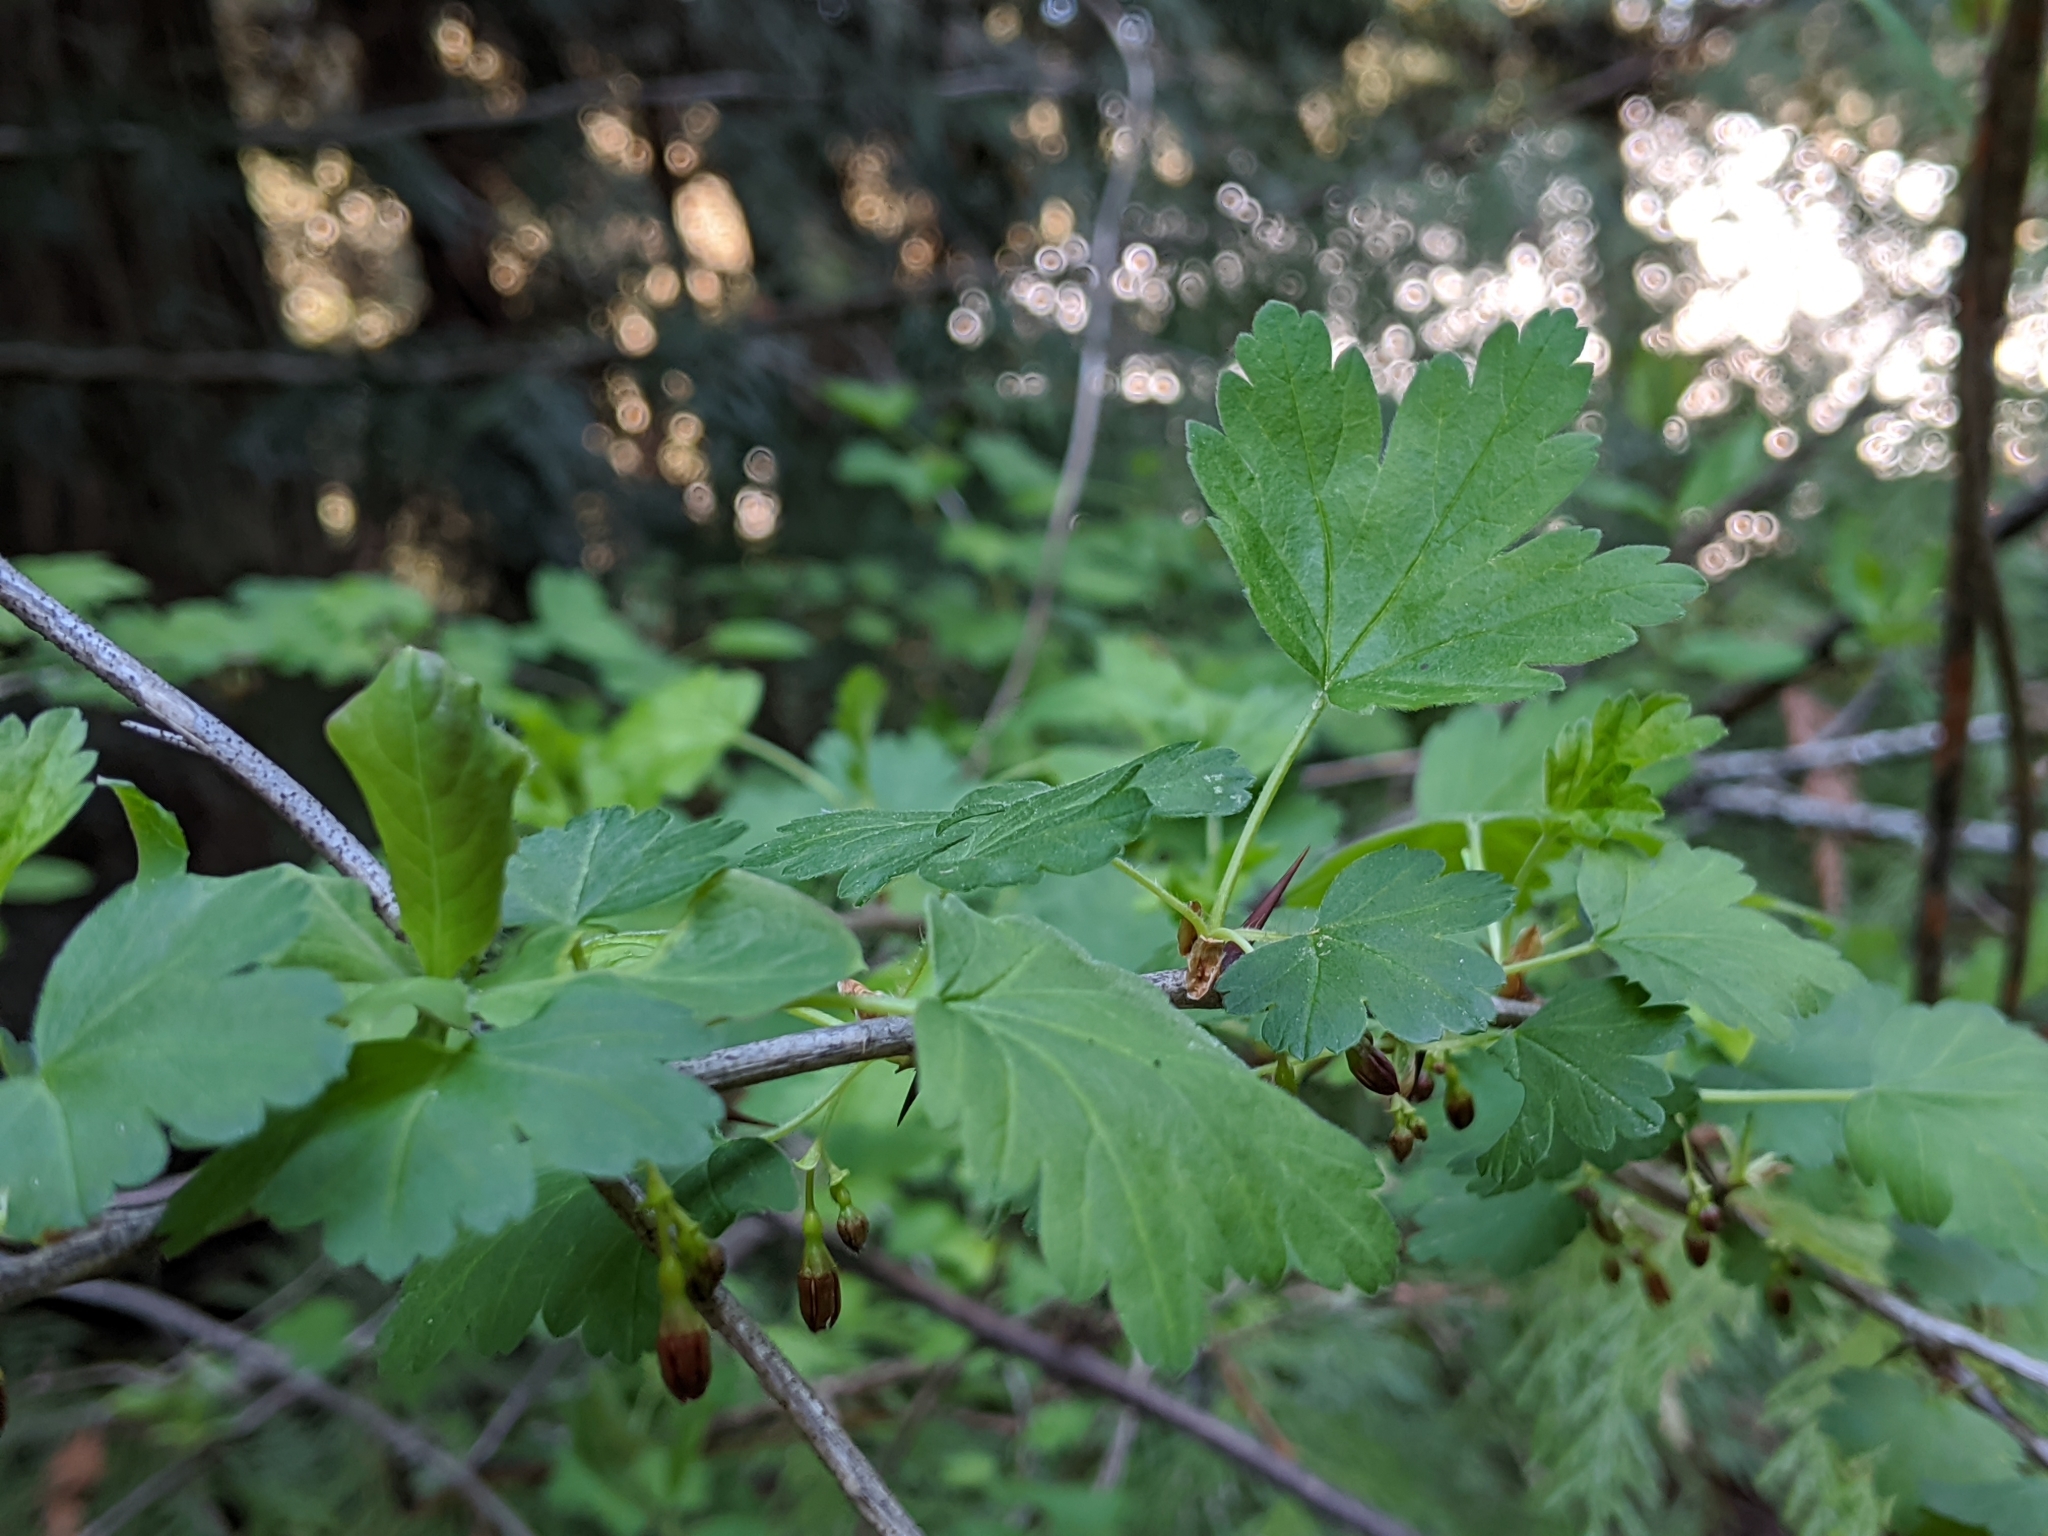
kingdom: Plantae
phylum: Tracheophyta
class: Magnoliopsida
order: Saxifragales
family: Grossulariaceae
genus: Ribes
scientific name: Ribes divaricatum
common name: Wild black gooseberry
